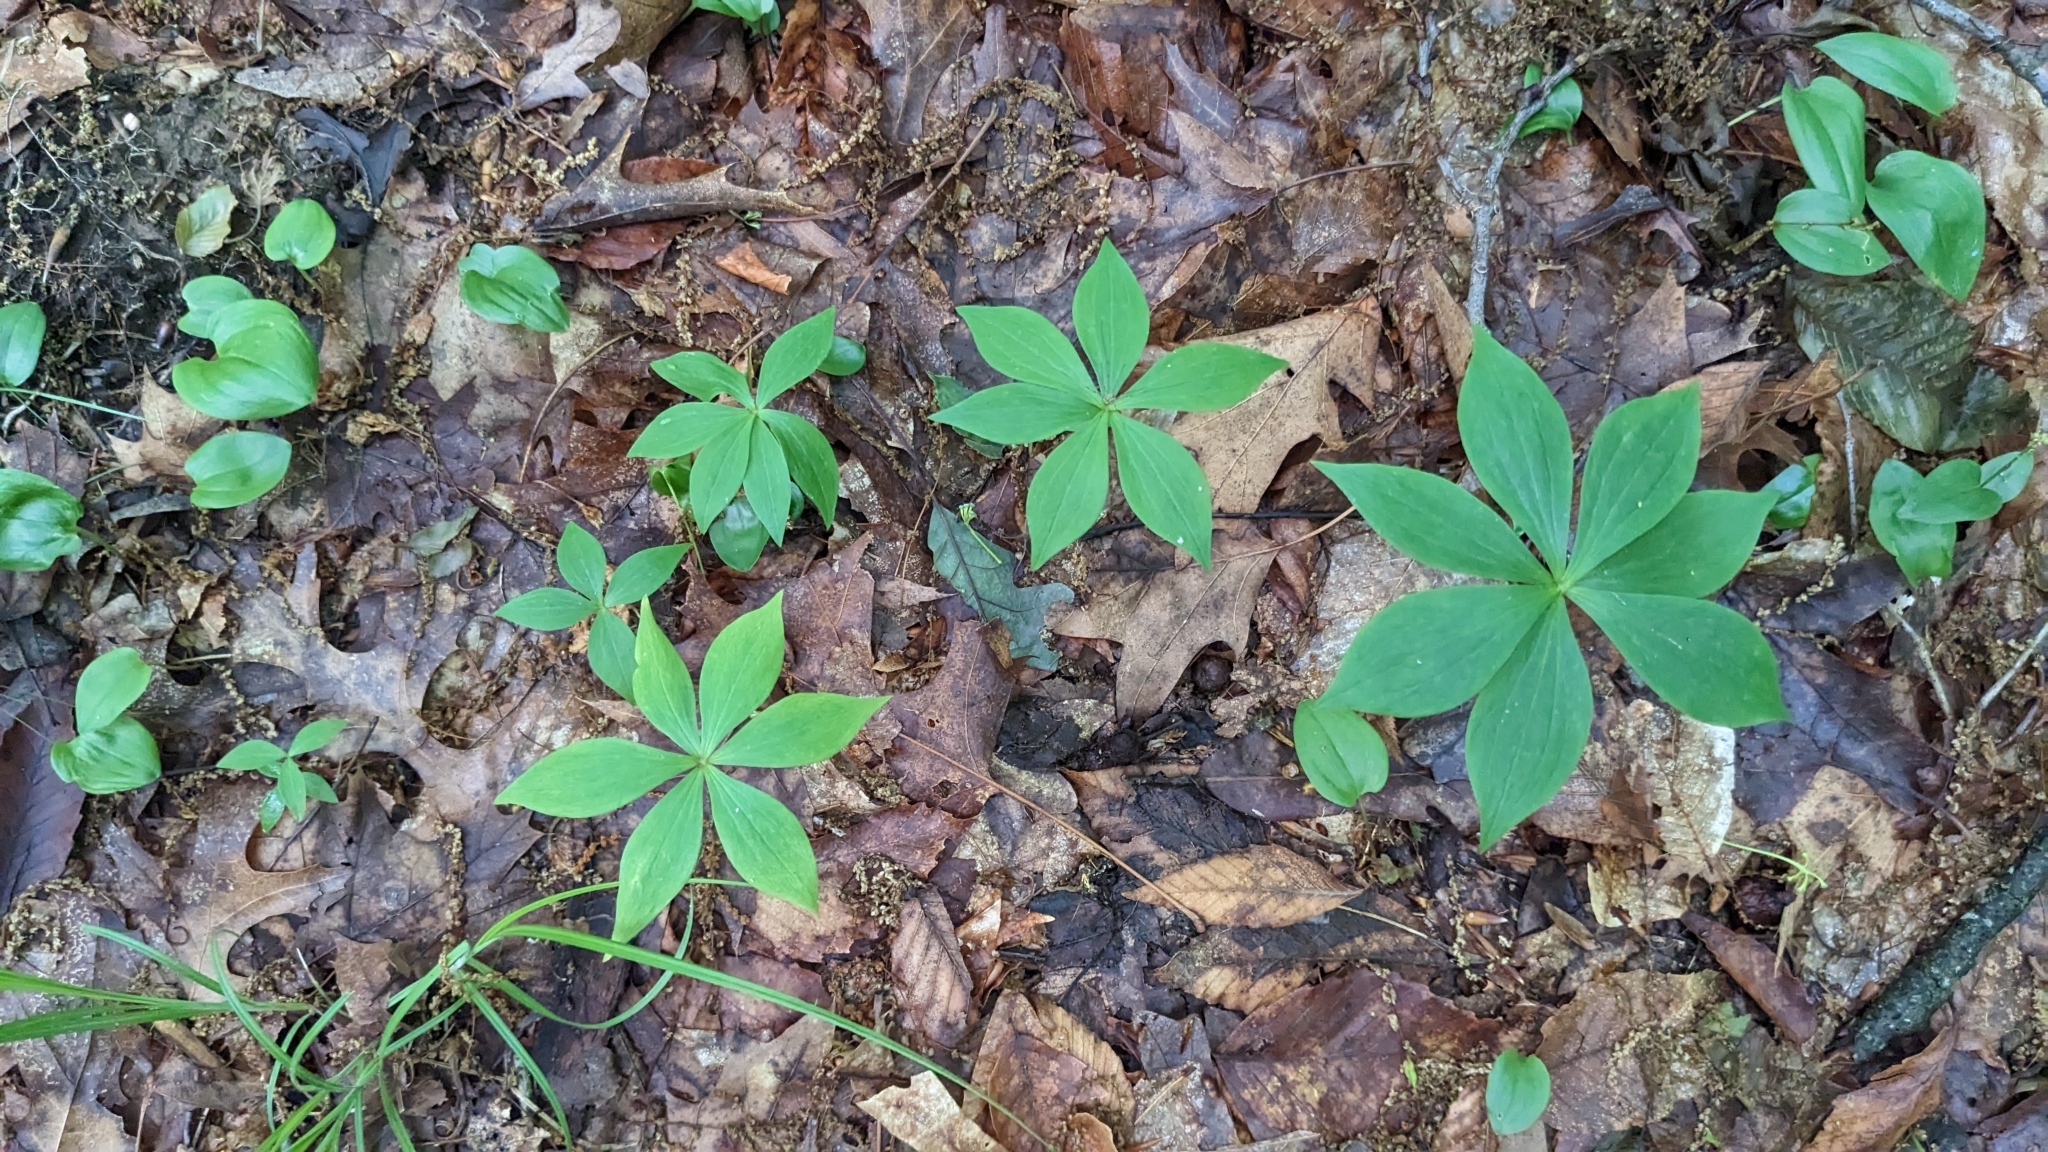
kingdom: Plantae
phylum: Tracheophyta
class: Liliopsida
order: Liliales
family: Liliaceae
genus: Medeola
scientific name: Medeola virginiana
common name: Indian cucumber-root
